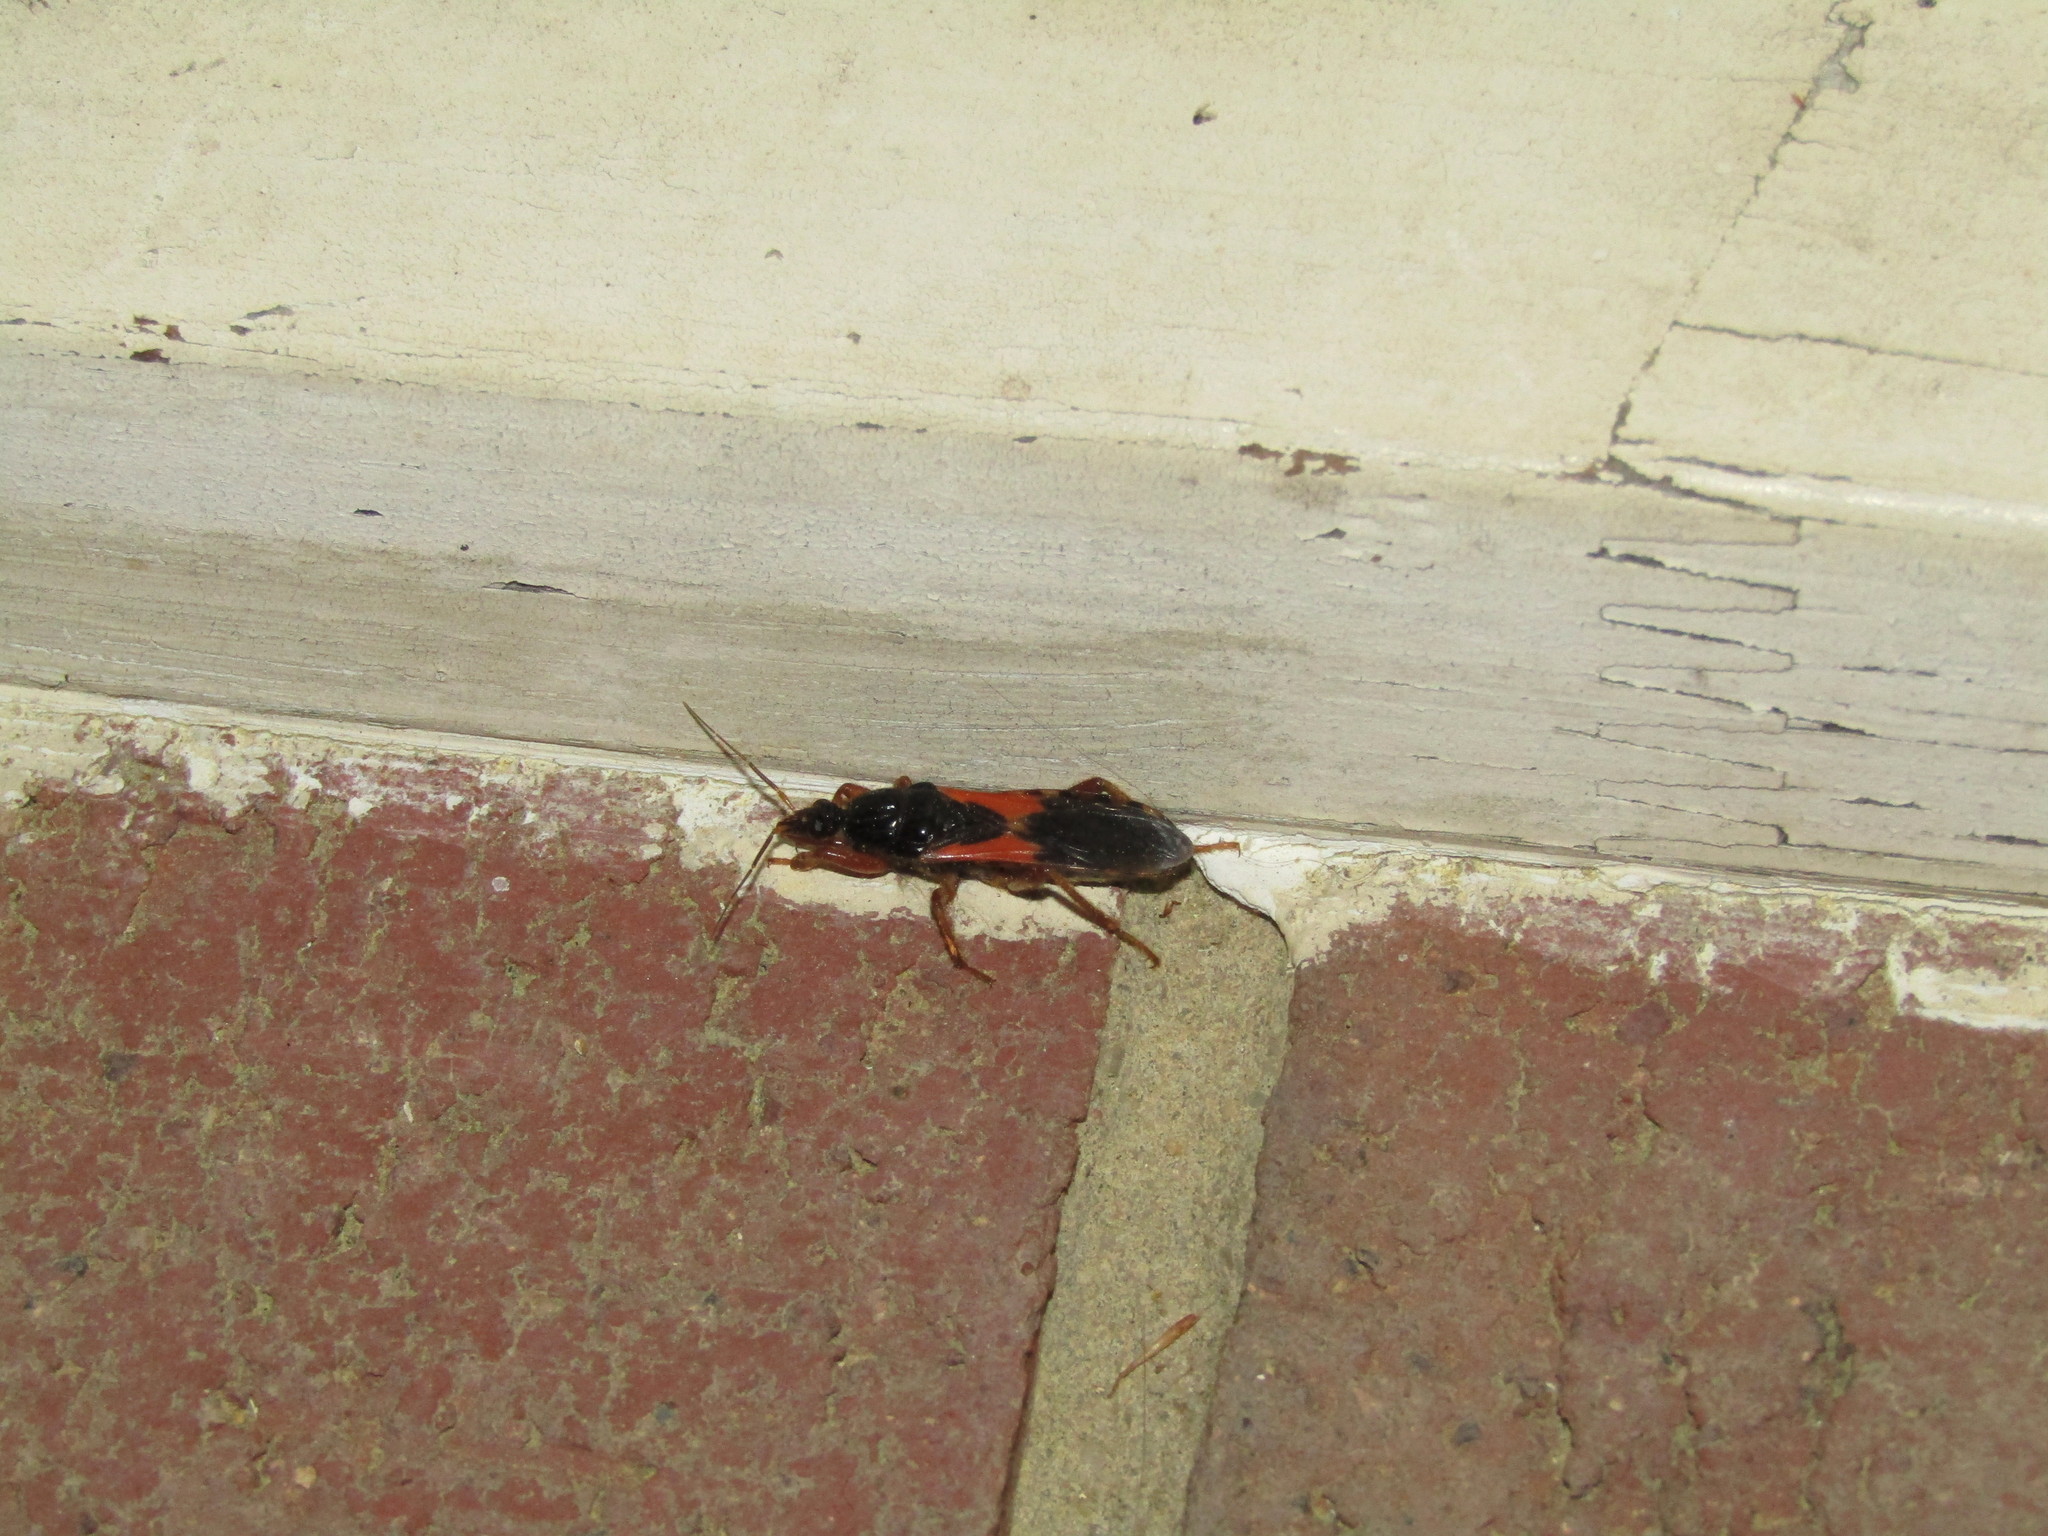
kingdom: Animalia
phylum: Arthropoda
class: Insecta
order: Hemiptera
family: Reduviidae
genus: Sirthenea
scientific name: Sirthenea stria
